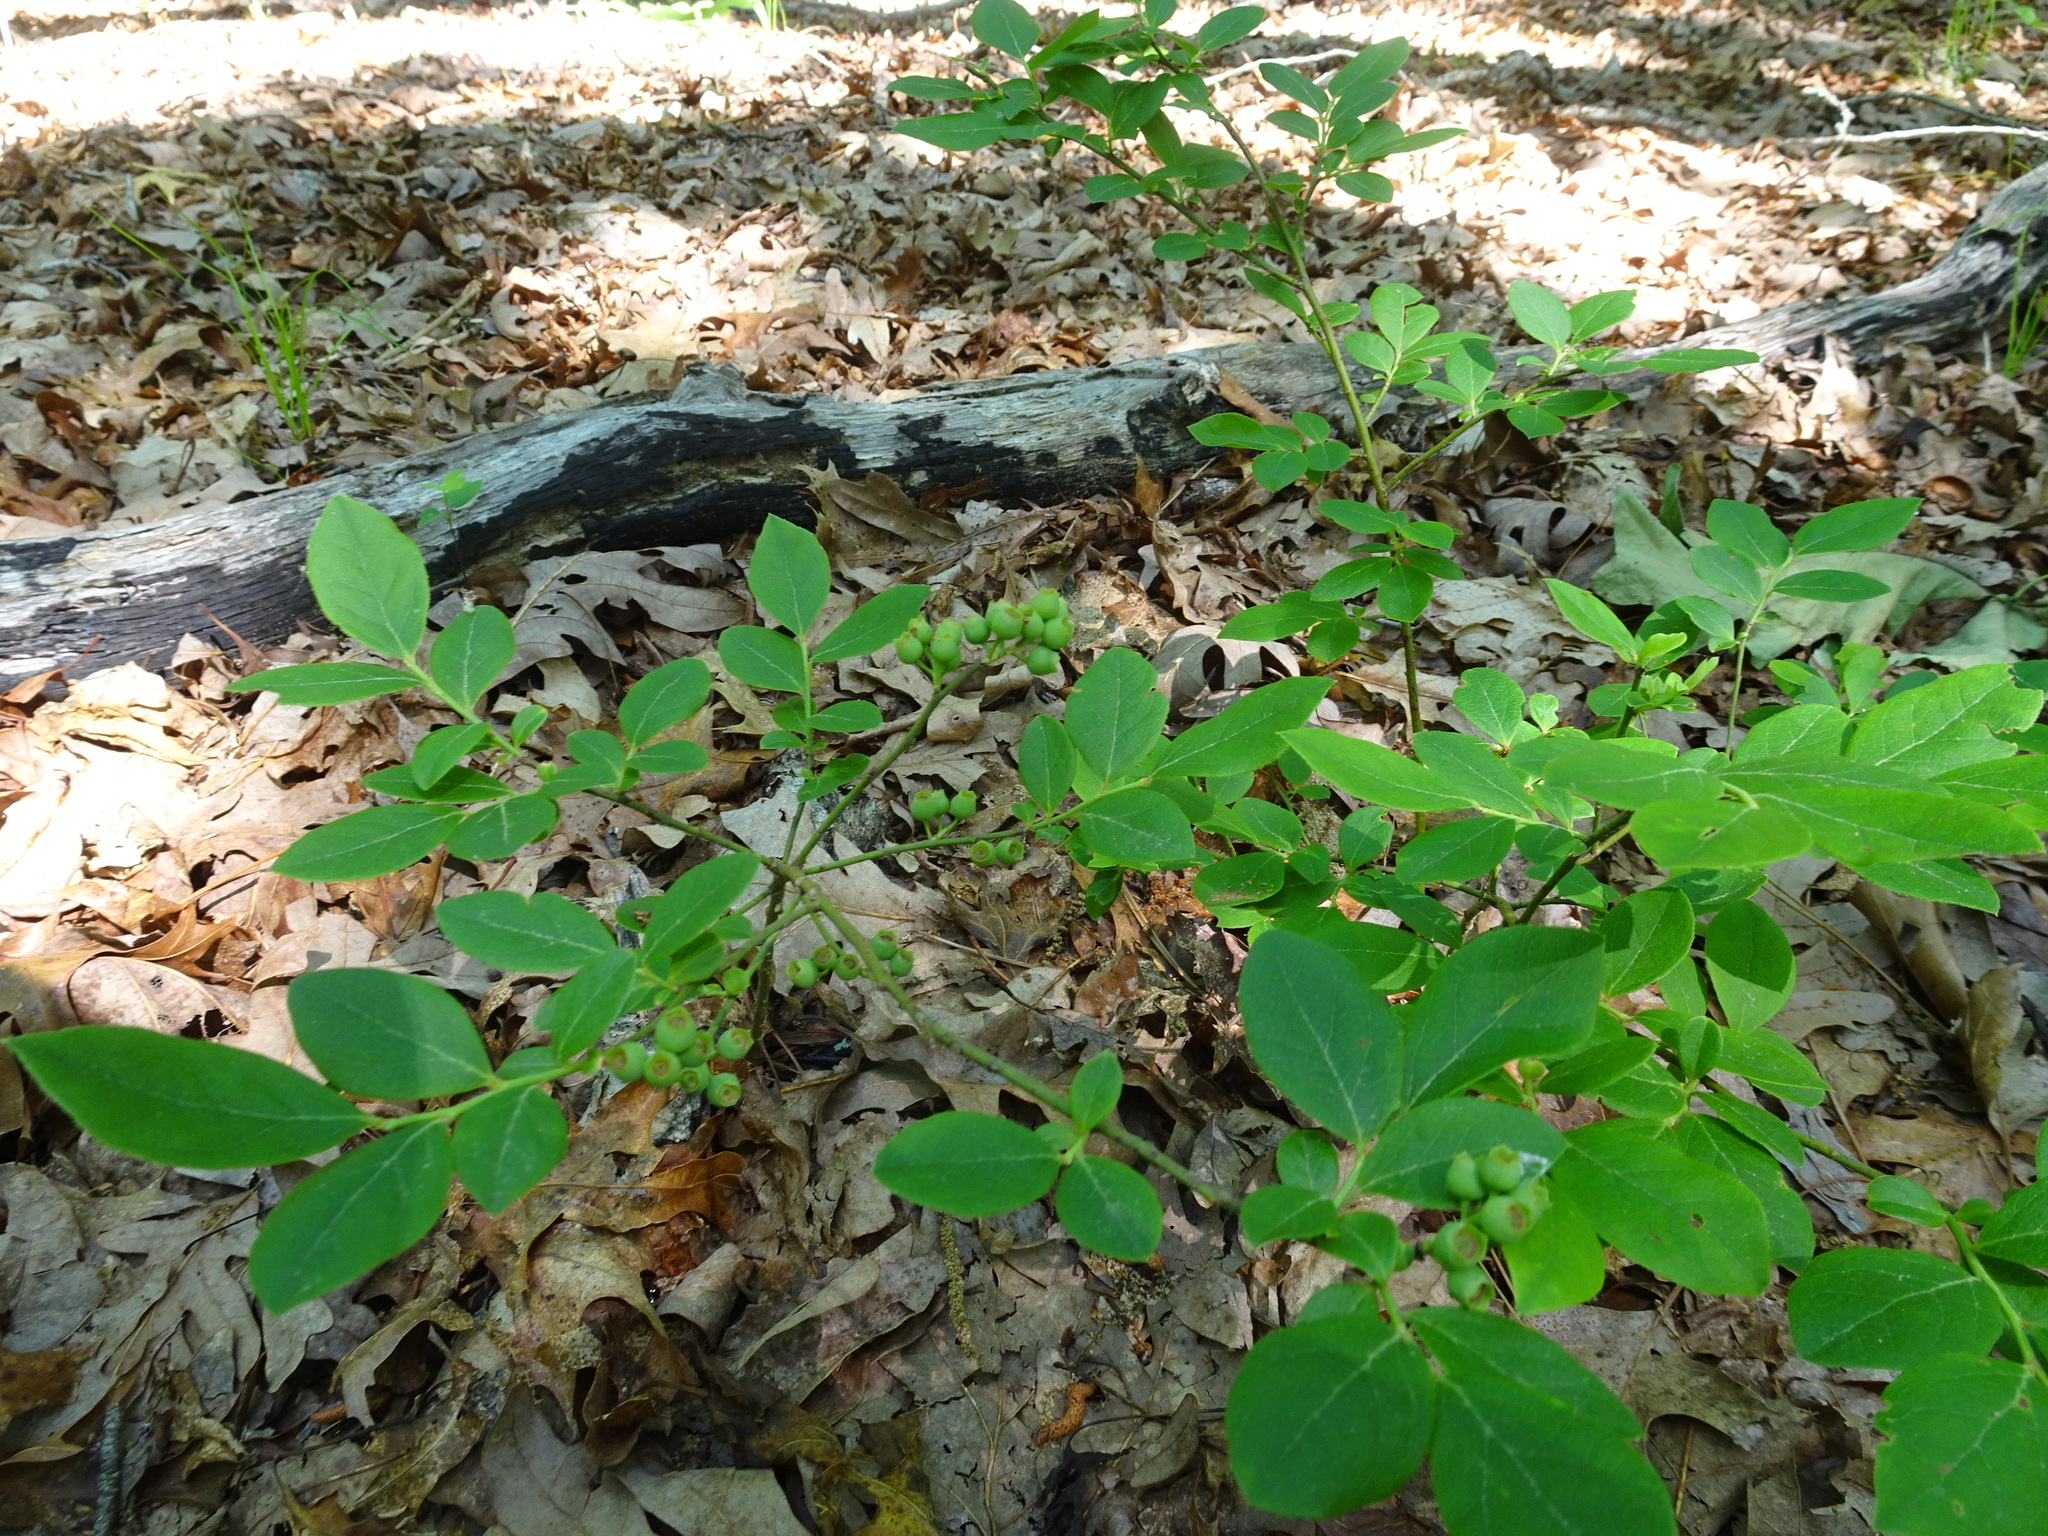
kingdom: Plantae
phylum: Tracheophyta
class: Magnoliopsida
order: Ericales
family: Ericaceae
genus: Vaccinium
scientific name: Vaccinium pallidum
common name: Blue ridge blueberry
